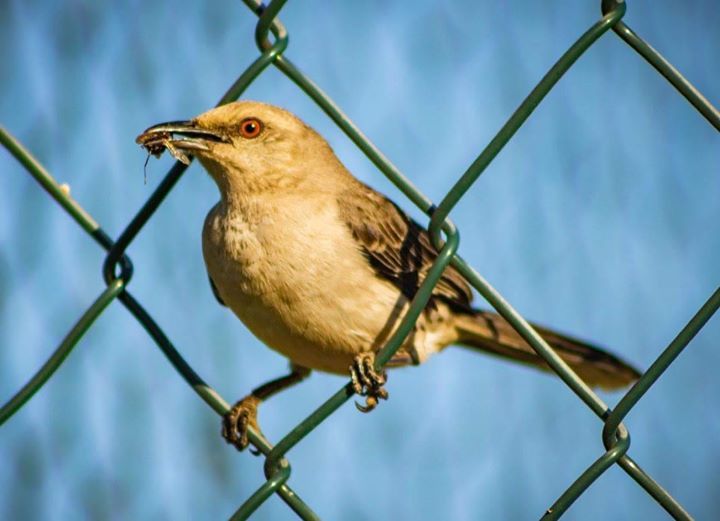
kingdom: Animalia
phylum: Chordata
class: Aves
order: Passeriformes
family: Mimidae
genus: Mimus
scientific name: Mimus gilvus
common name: Tropical mockingbird
